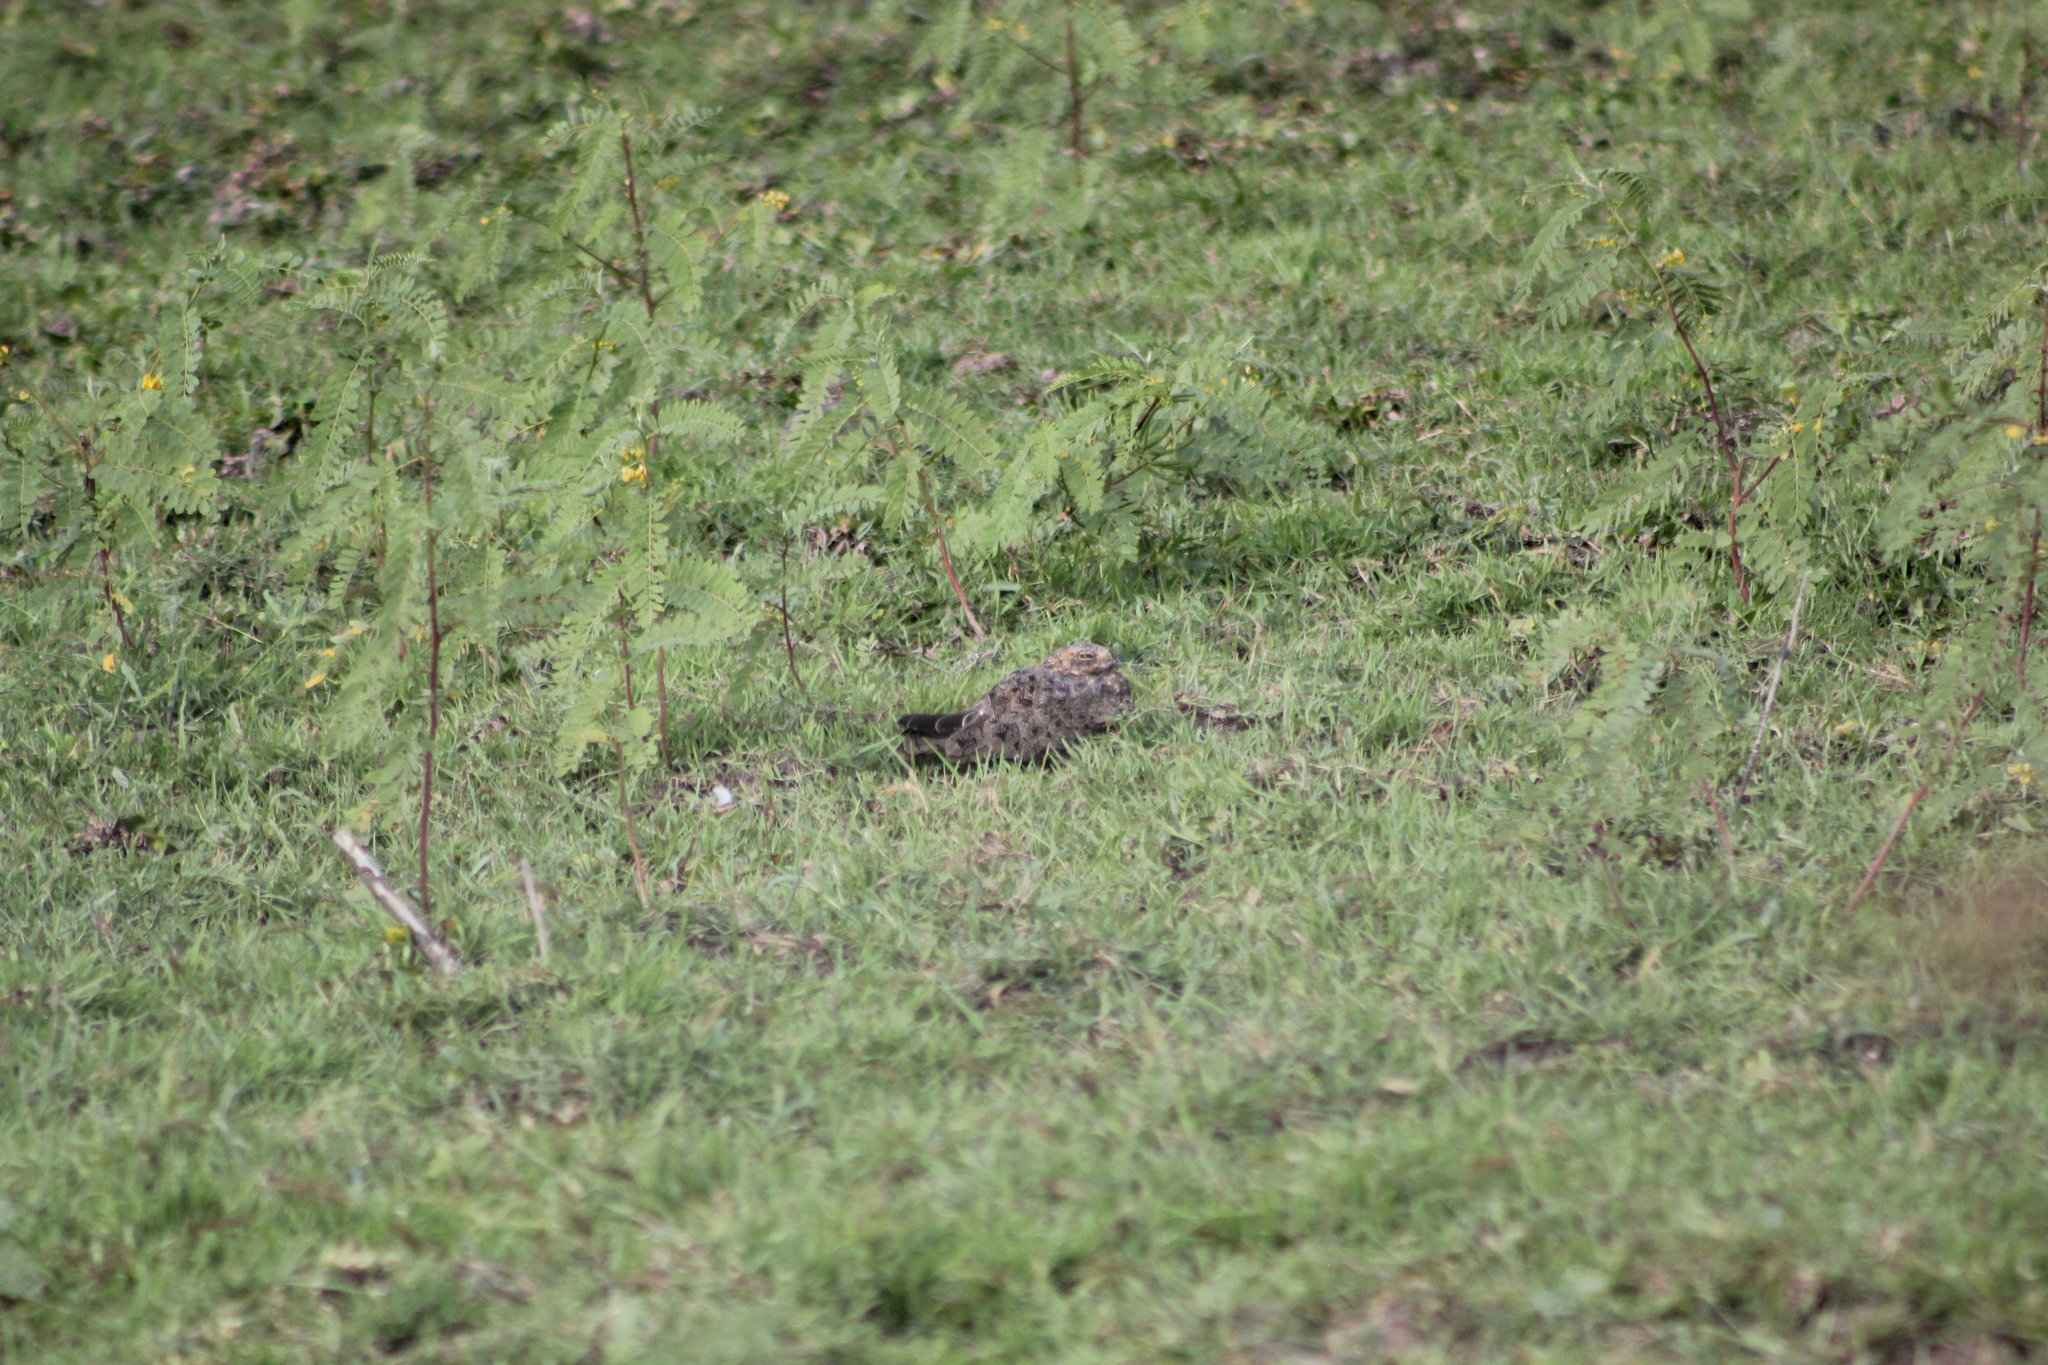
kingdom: Animalia
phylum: Chordata
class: Aves
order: Caprimulgiformes
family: Caprimulgidae
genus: Chordeiles
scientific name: Chordeiles nacunda
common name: Nacunda nighthawk
